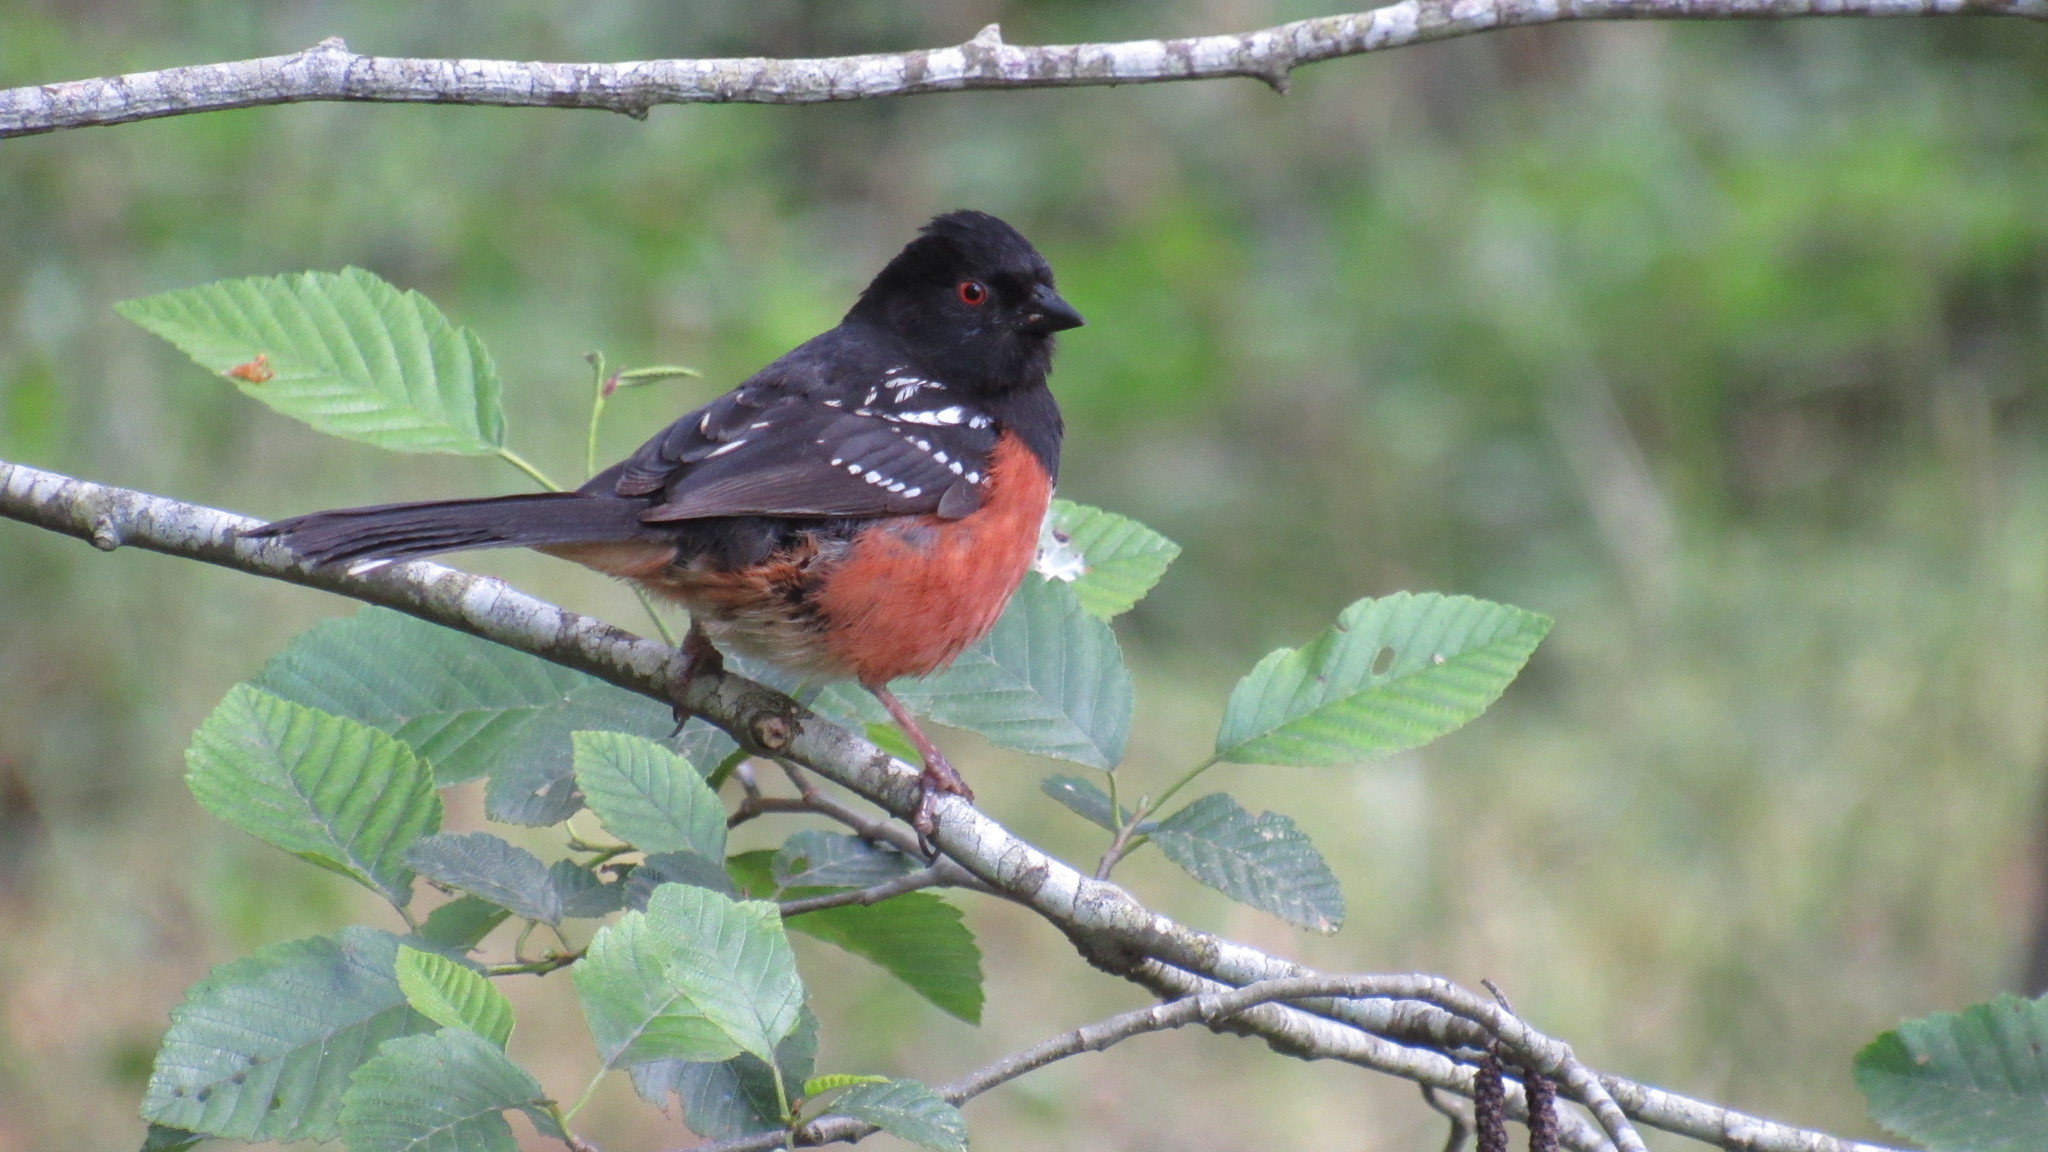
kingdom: Animalia
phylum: Chordata
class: Aves
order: Passeriformes
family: Passerellidae
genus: Pipilo
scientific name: Pipilo maculatus
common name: Spotted towhee
